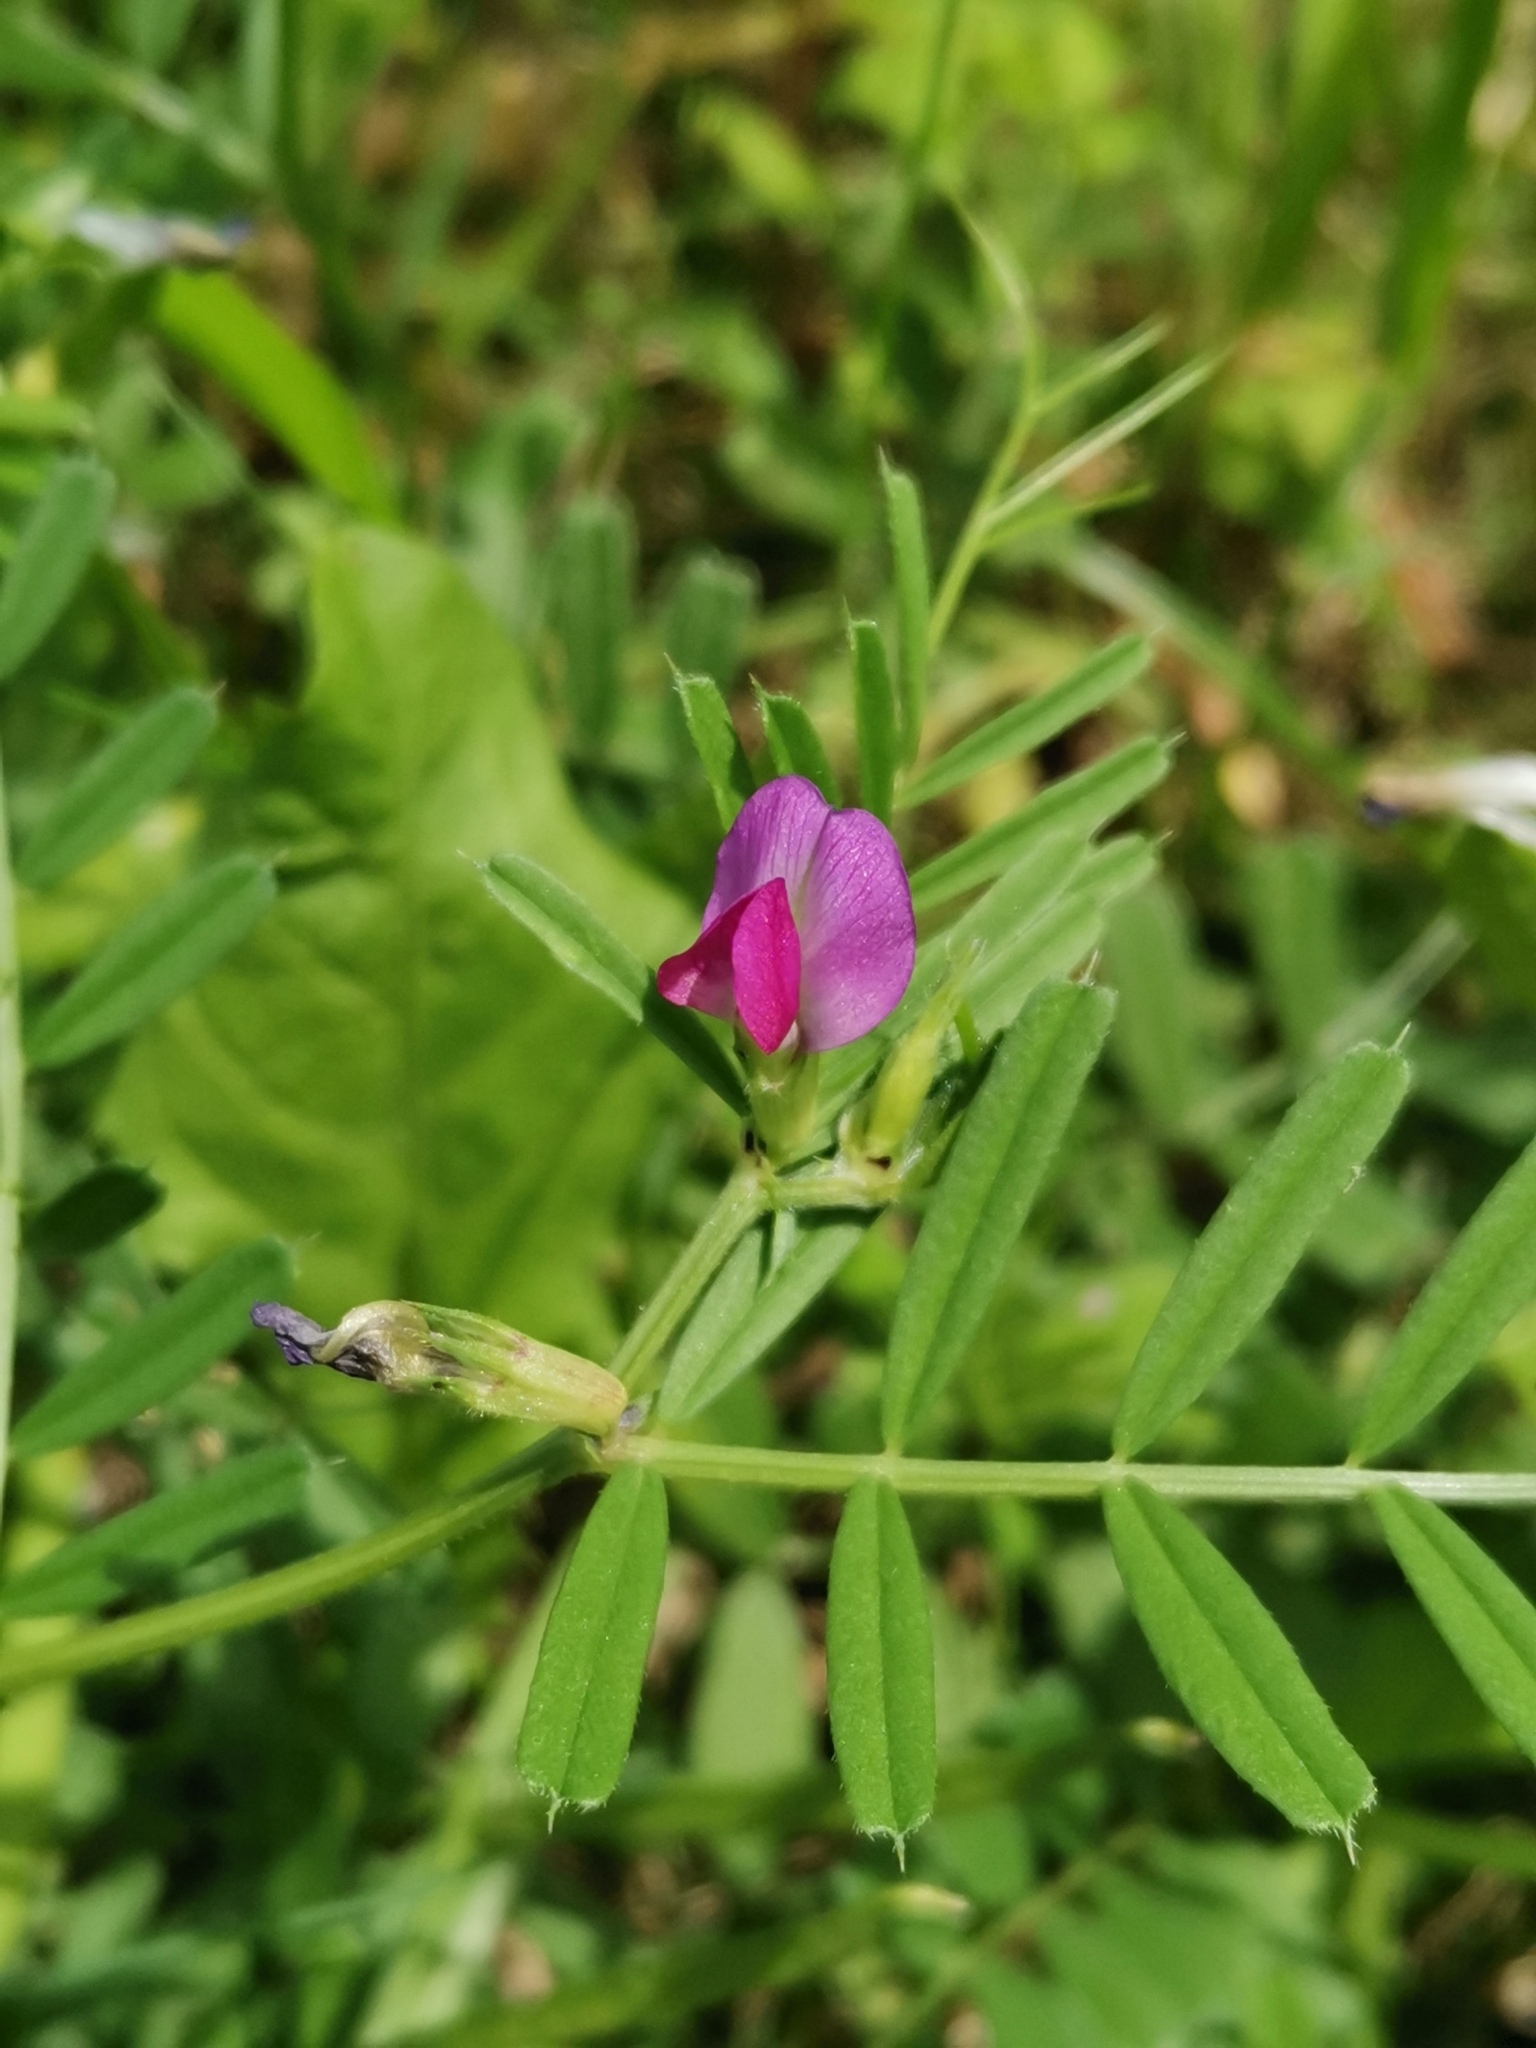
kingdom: Plantae
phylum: Tracheophyta
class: Magnoliopsida
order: Fabales
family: Fabaceae
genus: Vicia
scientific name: Vicia sativa
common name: Garden vetch
